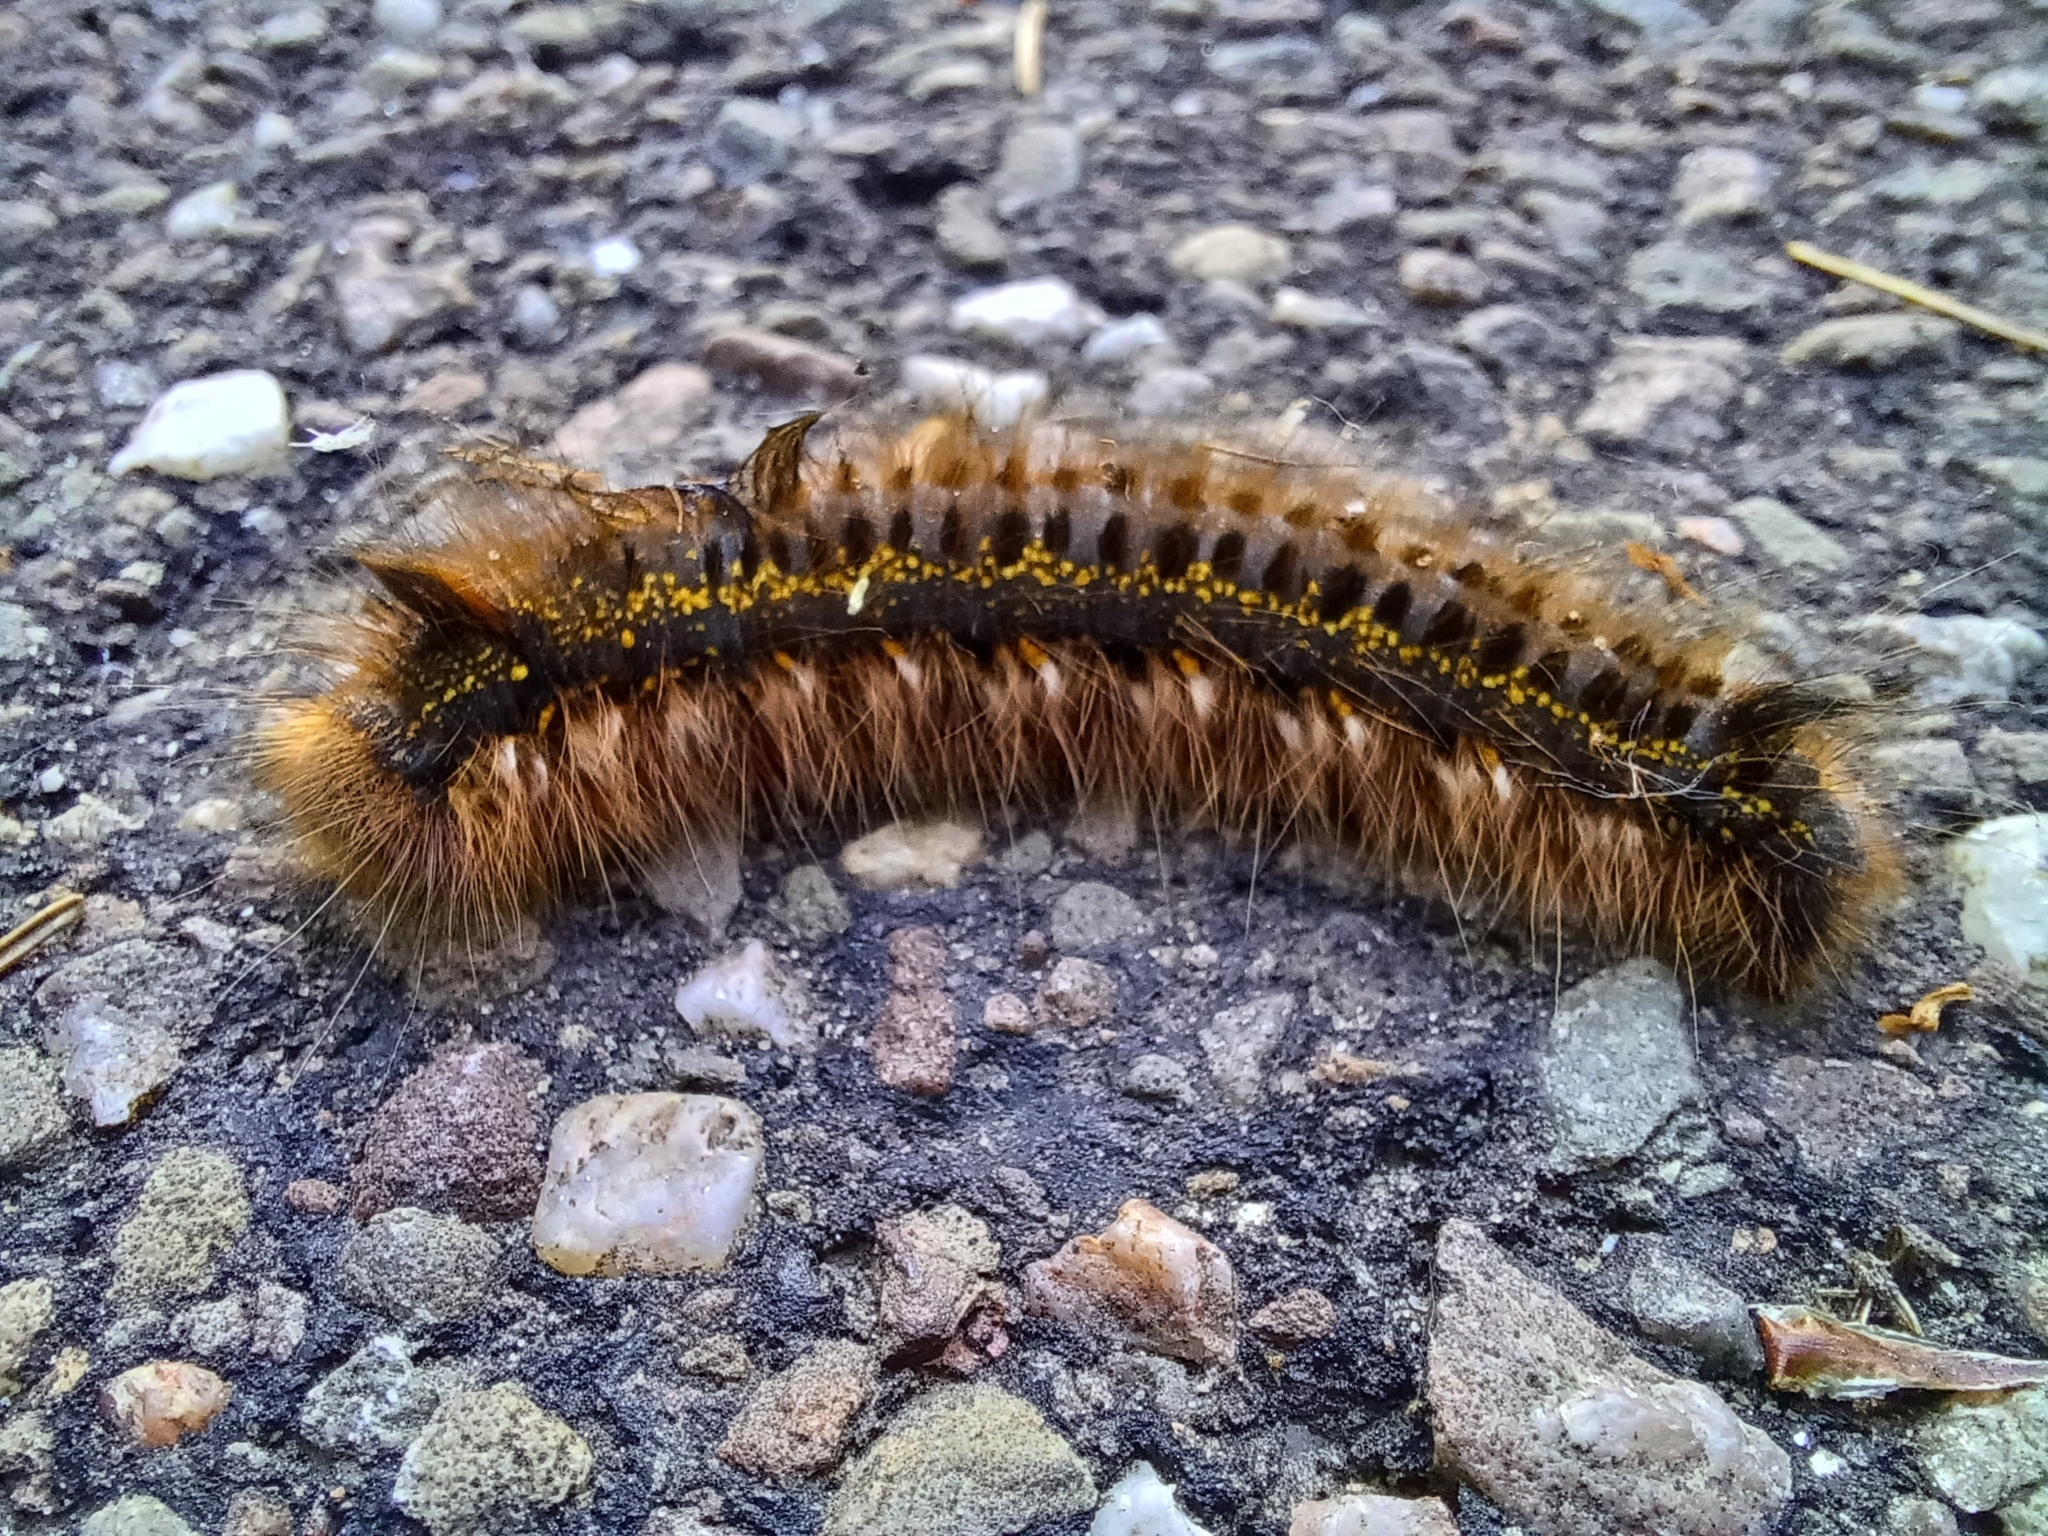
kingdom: Animalia
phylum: Arthropoda
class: Insecta
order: Lepidoptera
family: Lasiocampidae
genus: Euthrix
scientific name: Euthrix potatoria
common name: Drinker
